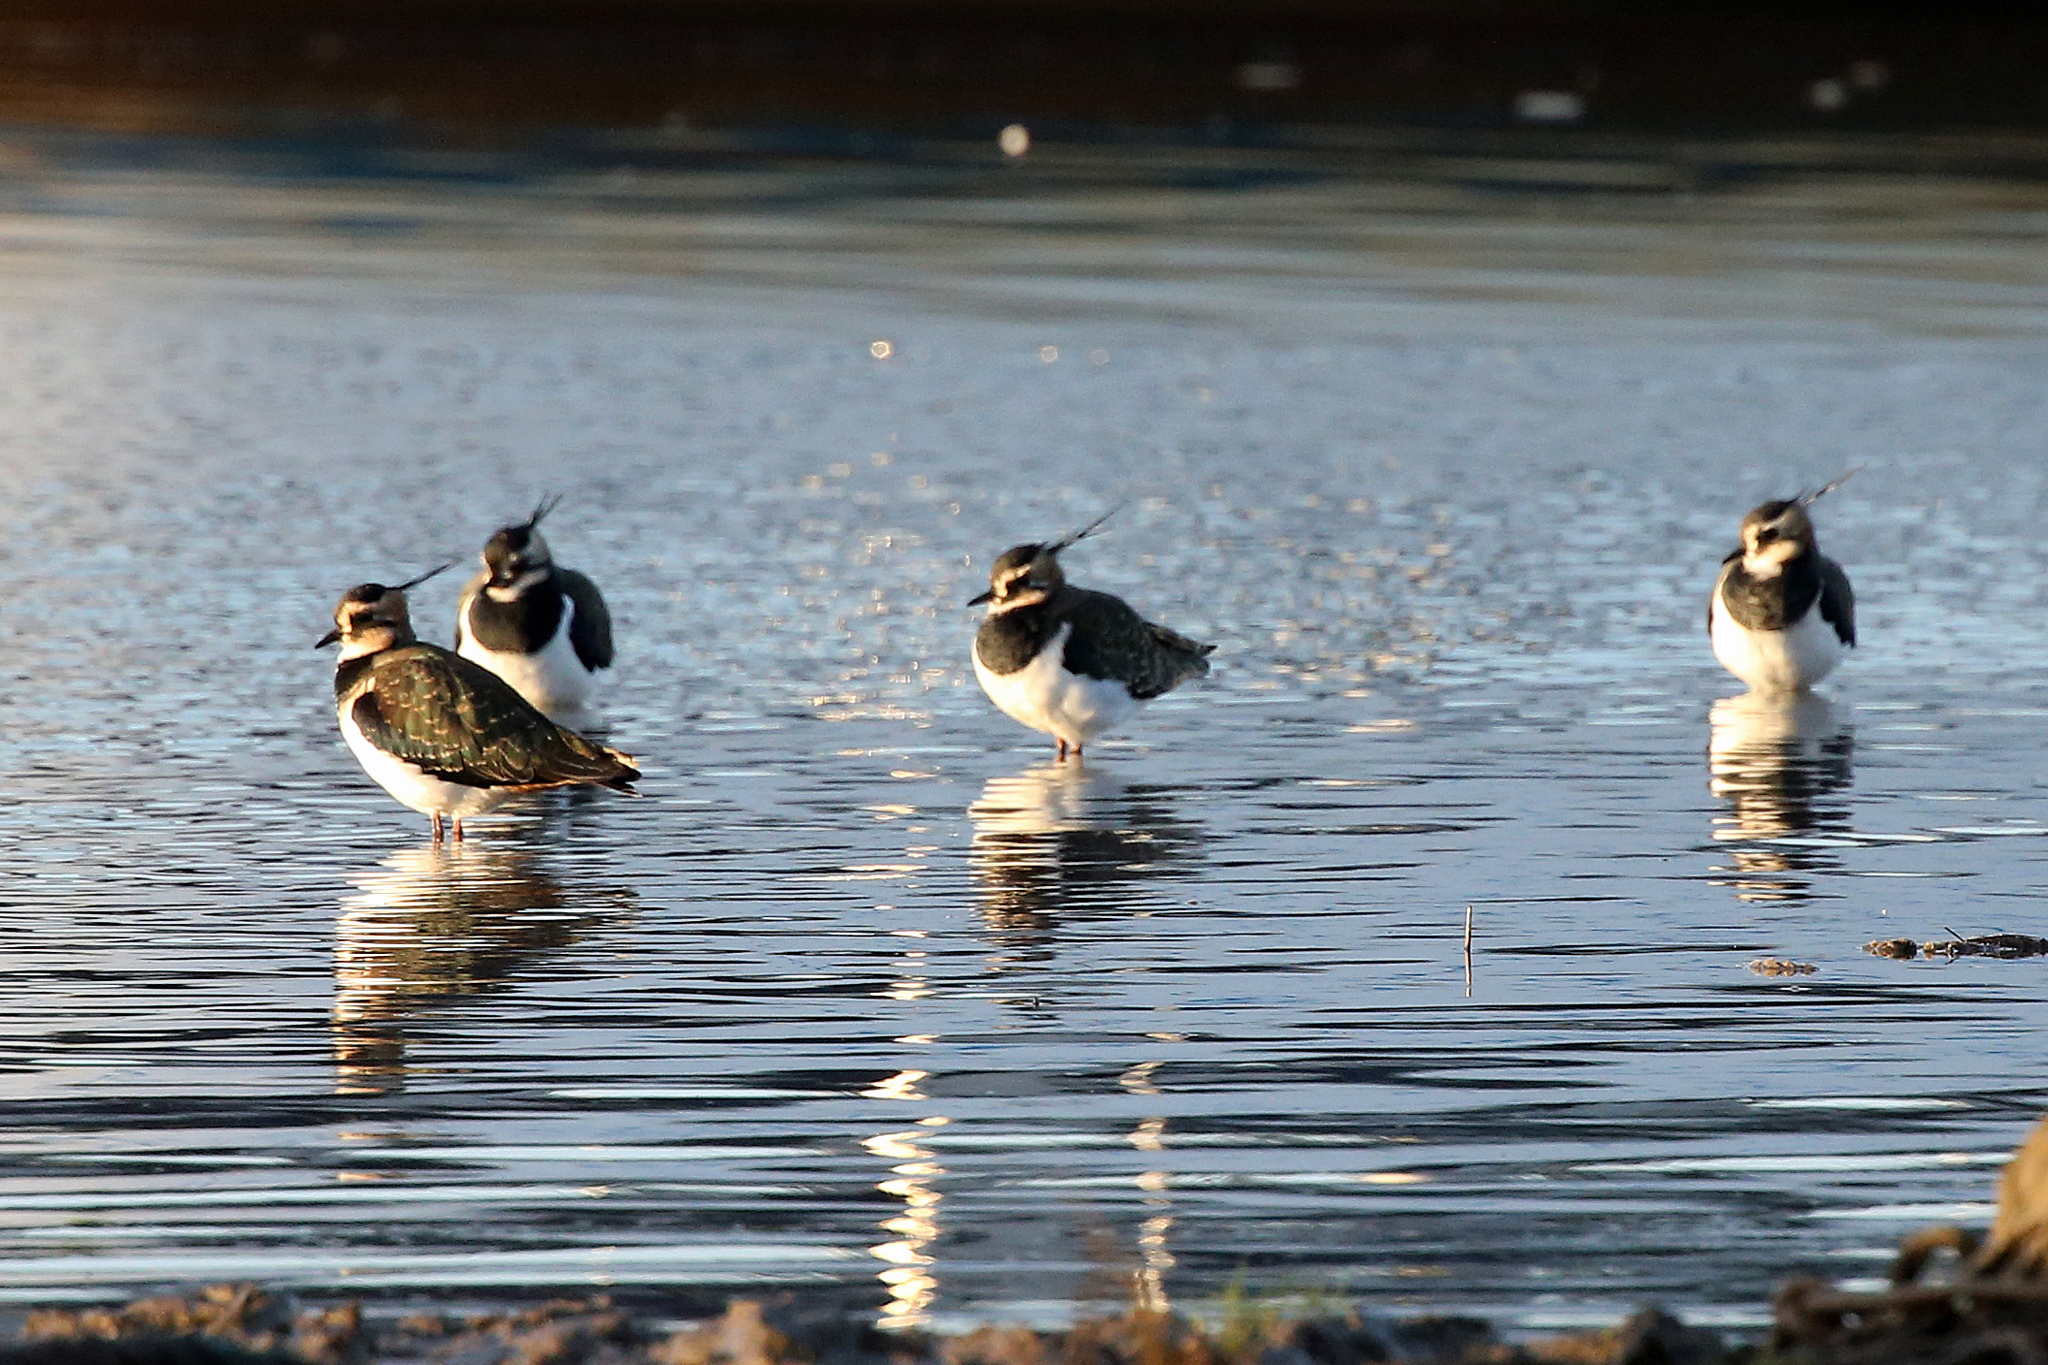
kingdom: Animalia
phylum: Chordata
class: Aves
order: Charadriiformes
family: Charadriidae
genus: Vanellus
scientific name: Vanellus vanellus
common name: Northern lapwing
